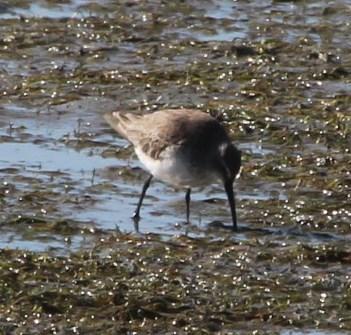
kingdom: Animalia
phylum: Chordata
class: Aves
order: Charadriiformes
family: Scolopacidae
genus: Calidris
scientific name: Calidris ferruginea
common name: Curlew sandpiper
